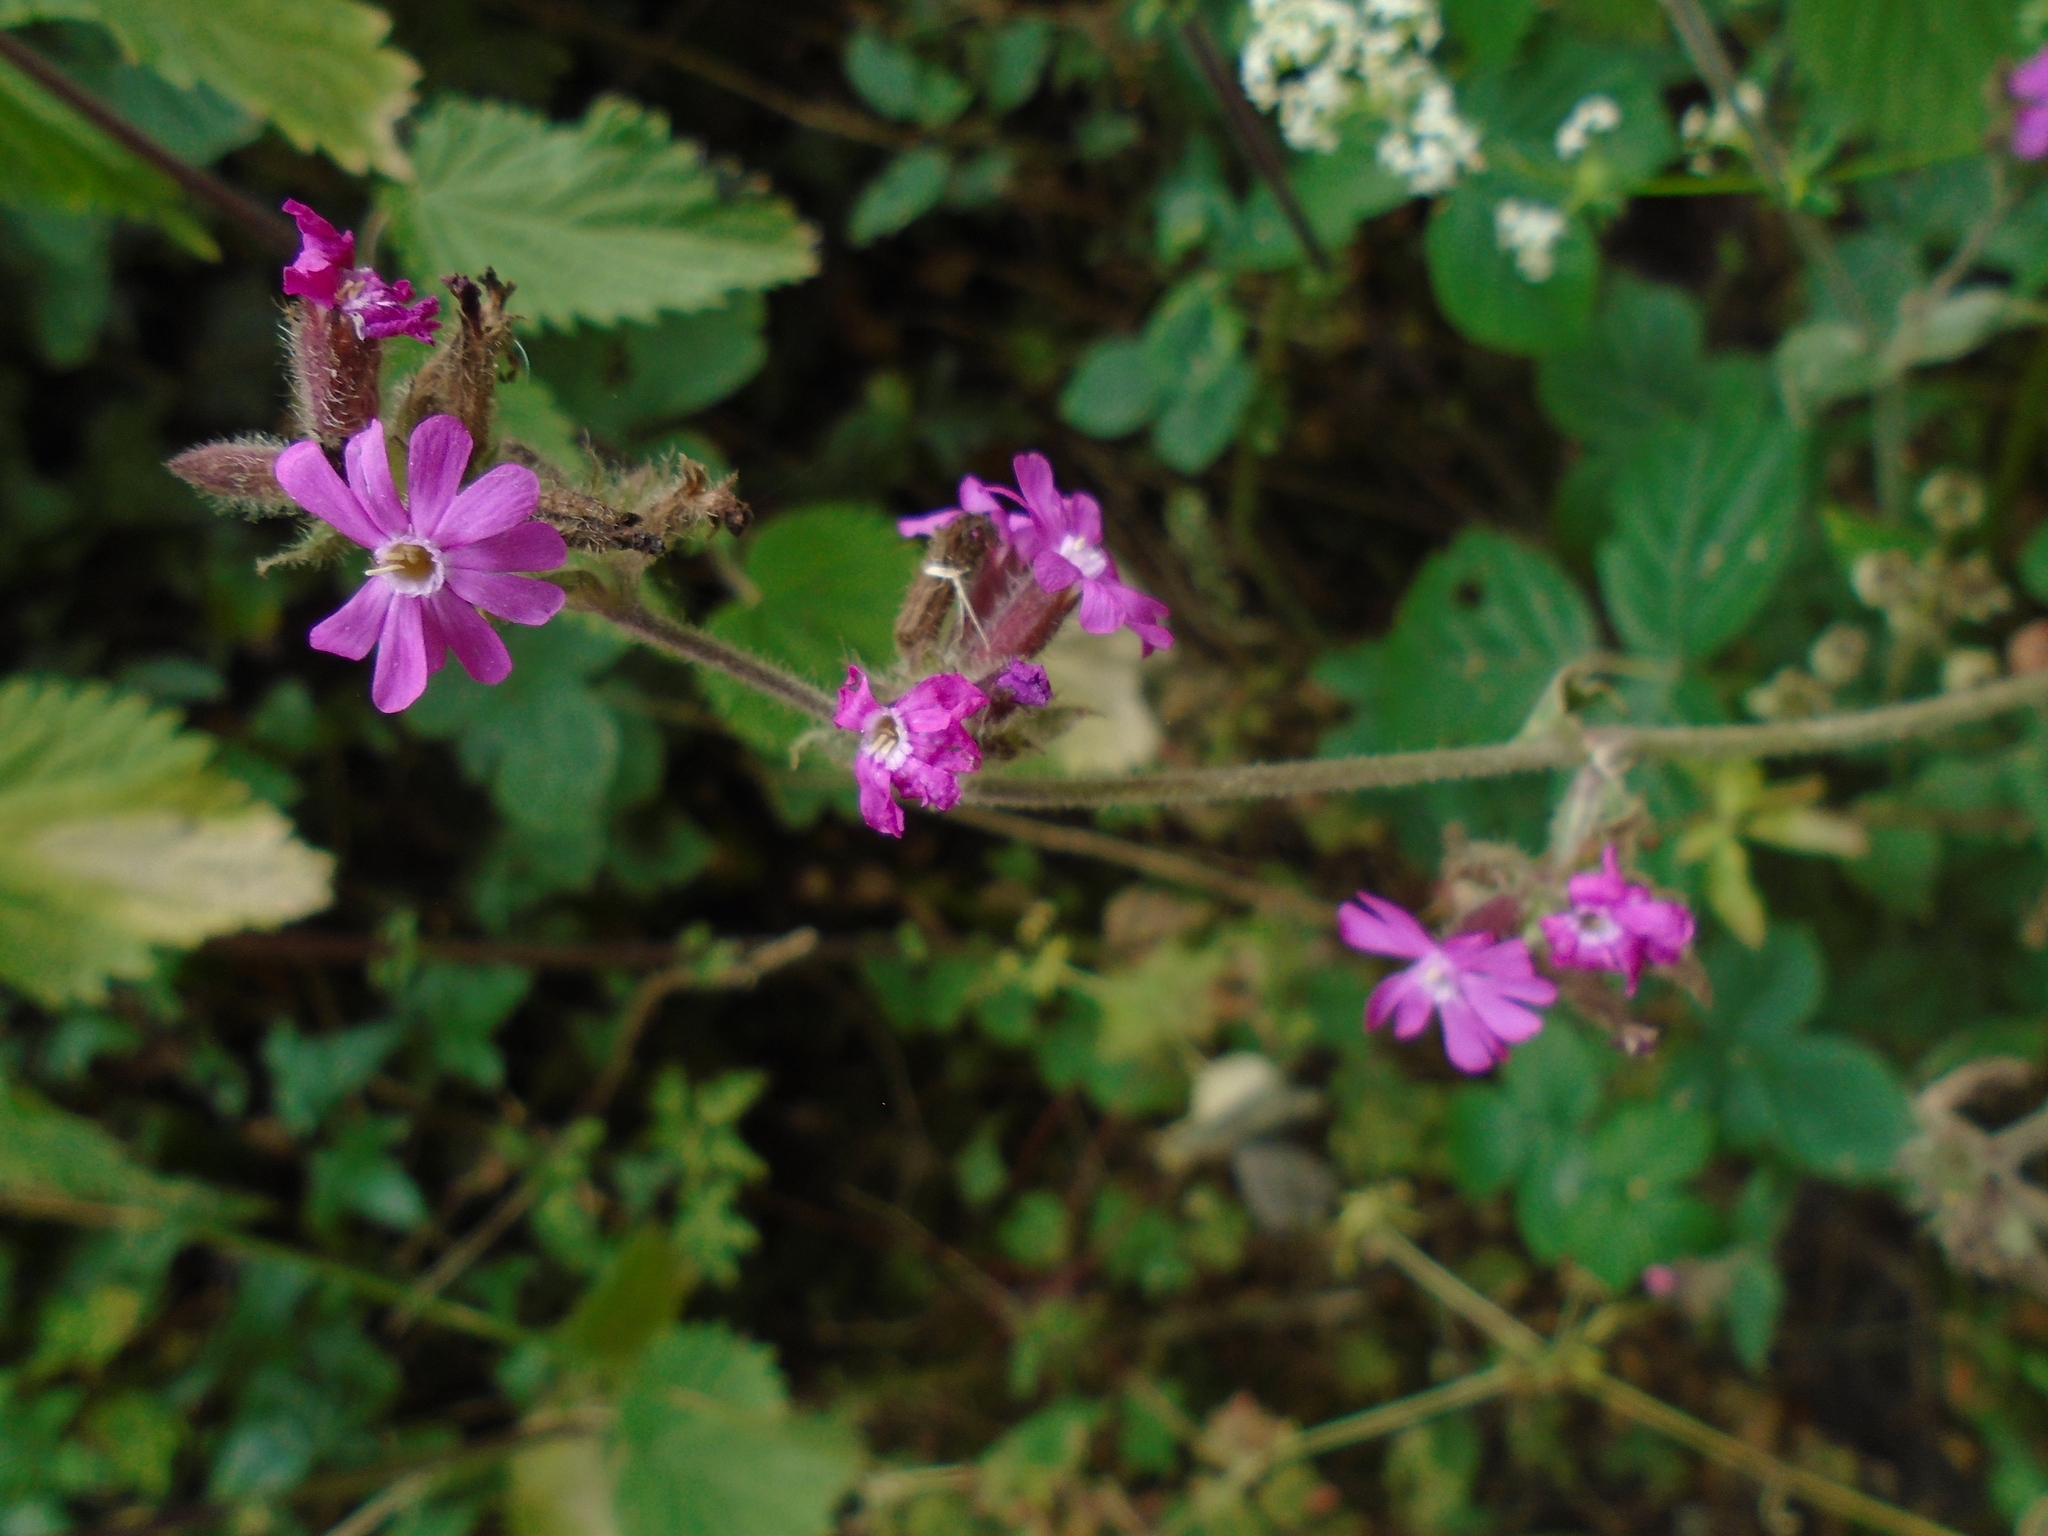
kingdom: Plantae
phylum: Tracheophyta
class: Magnoliopsida
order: Caryophyllales
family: Caryophyllaceae
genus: Silene
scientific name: Silene dioica
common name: Red campion
